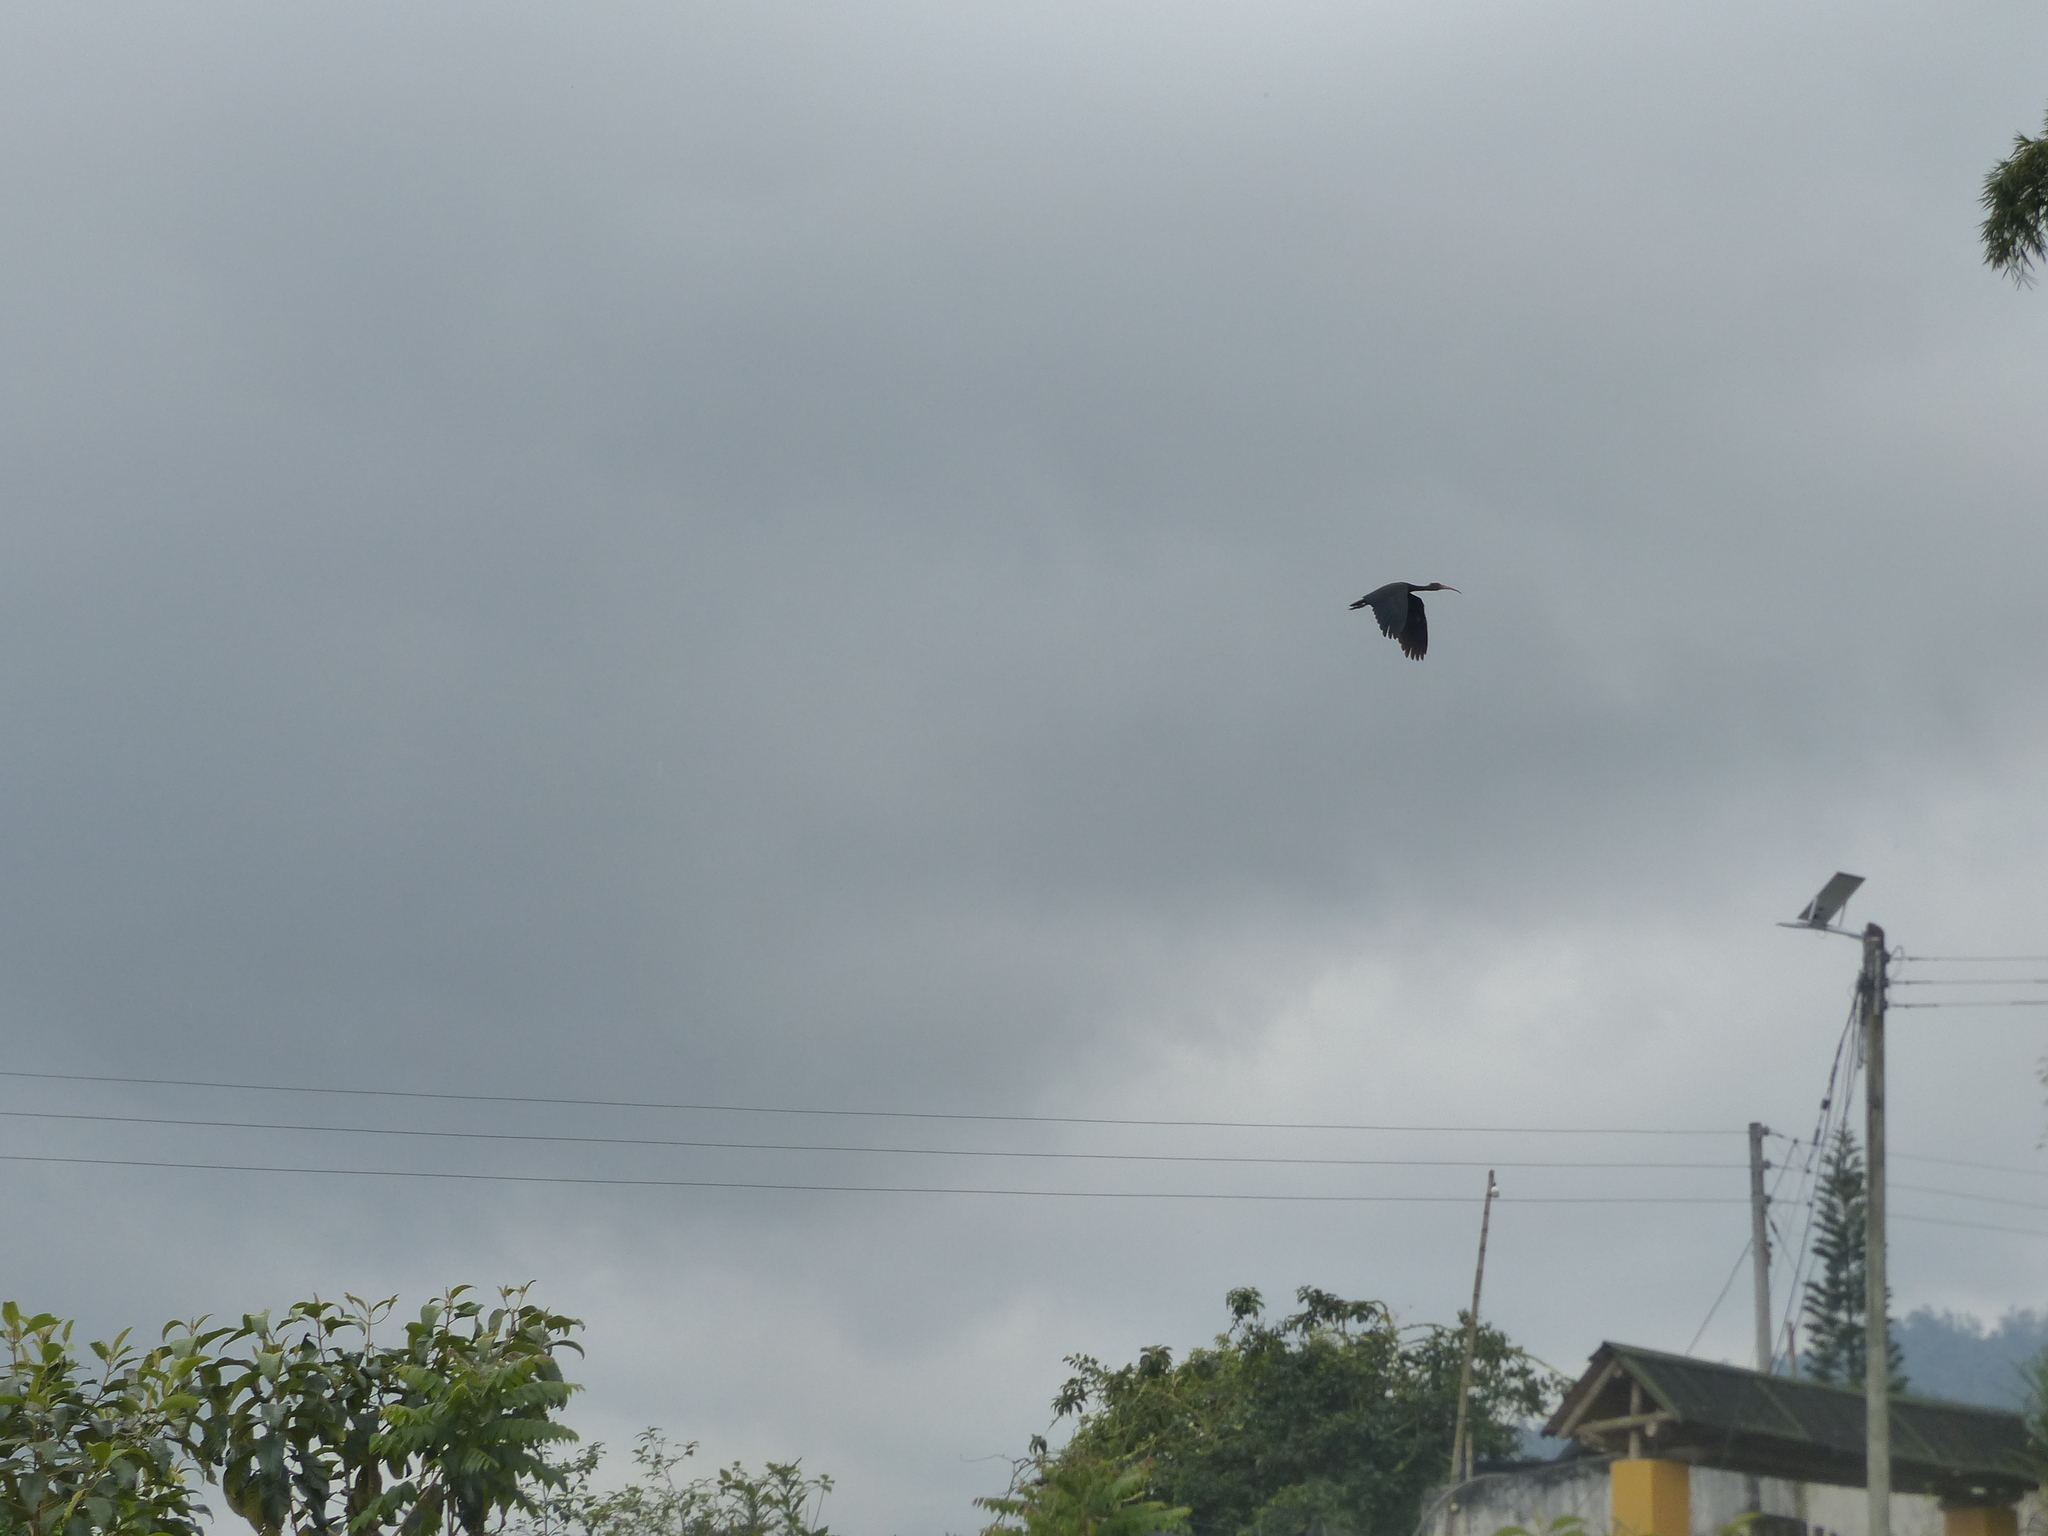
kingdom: Animalia
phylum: Chordata
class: Aves
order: Pelecaniformes
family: Threskiornithidae
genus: Phimosus
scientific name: Phimosus infuscatus
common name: Bare-faced ibis
